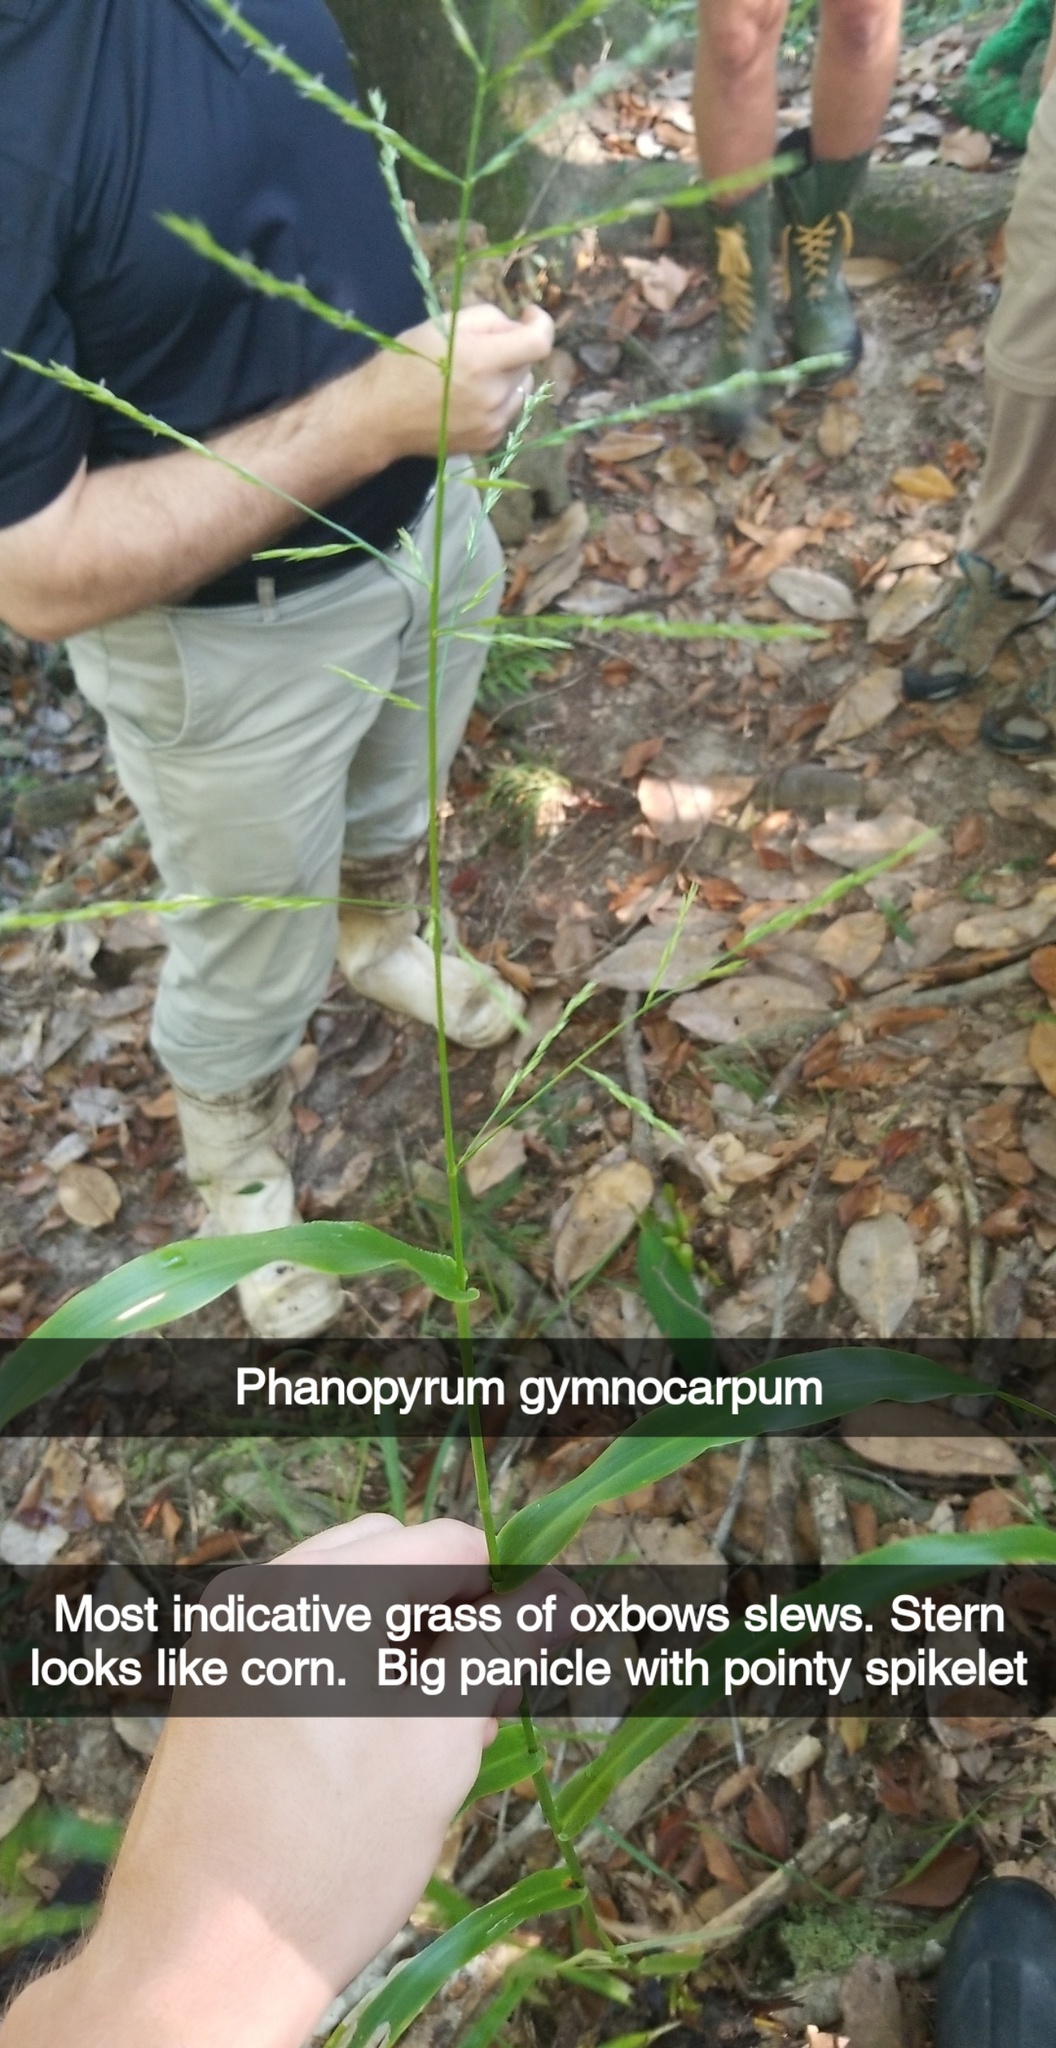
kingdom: Plantae
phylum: Tracheophyta
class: Liliopsida
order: Poales
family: Poaceae
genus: Panicum
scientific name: Panicum gymnocarpon
